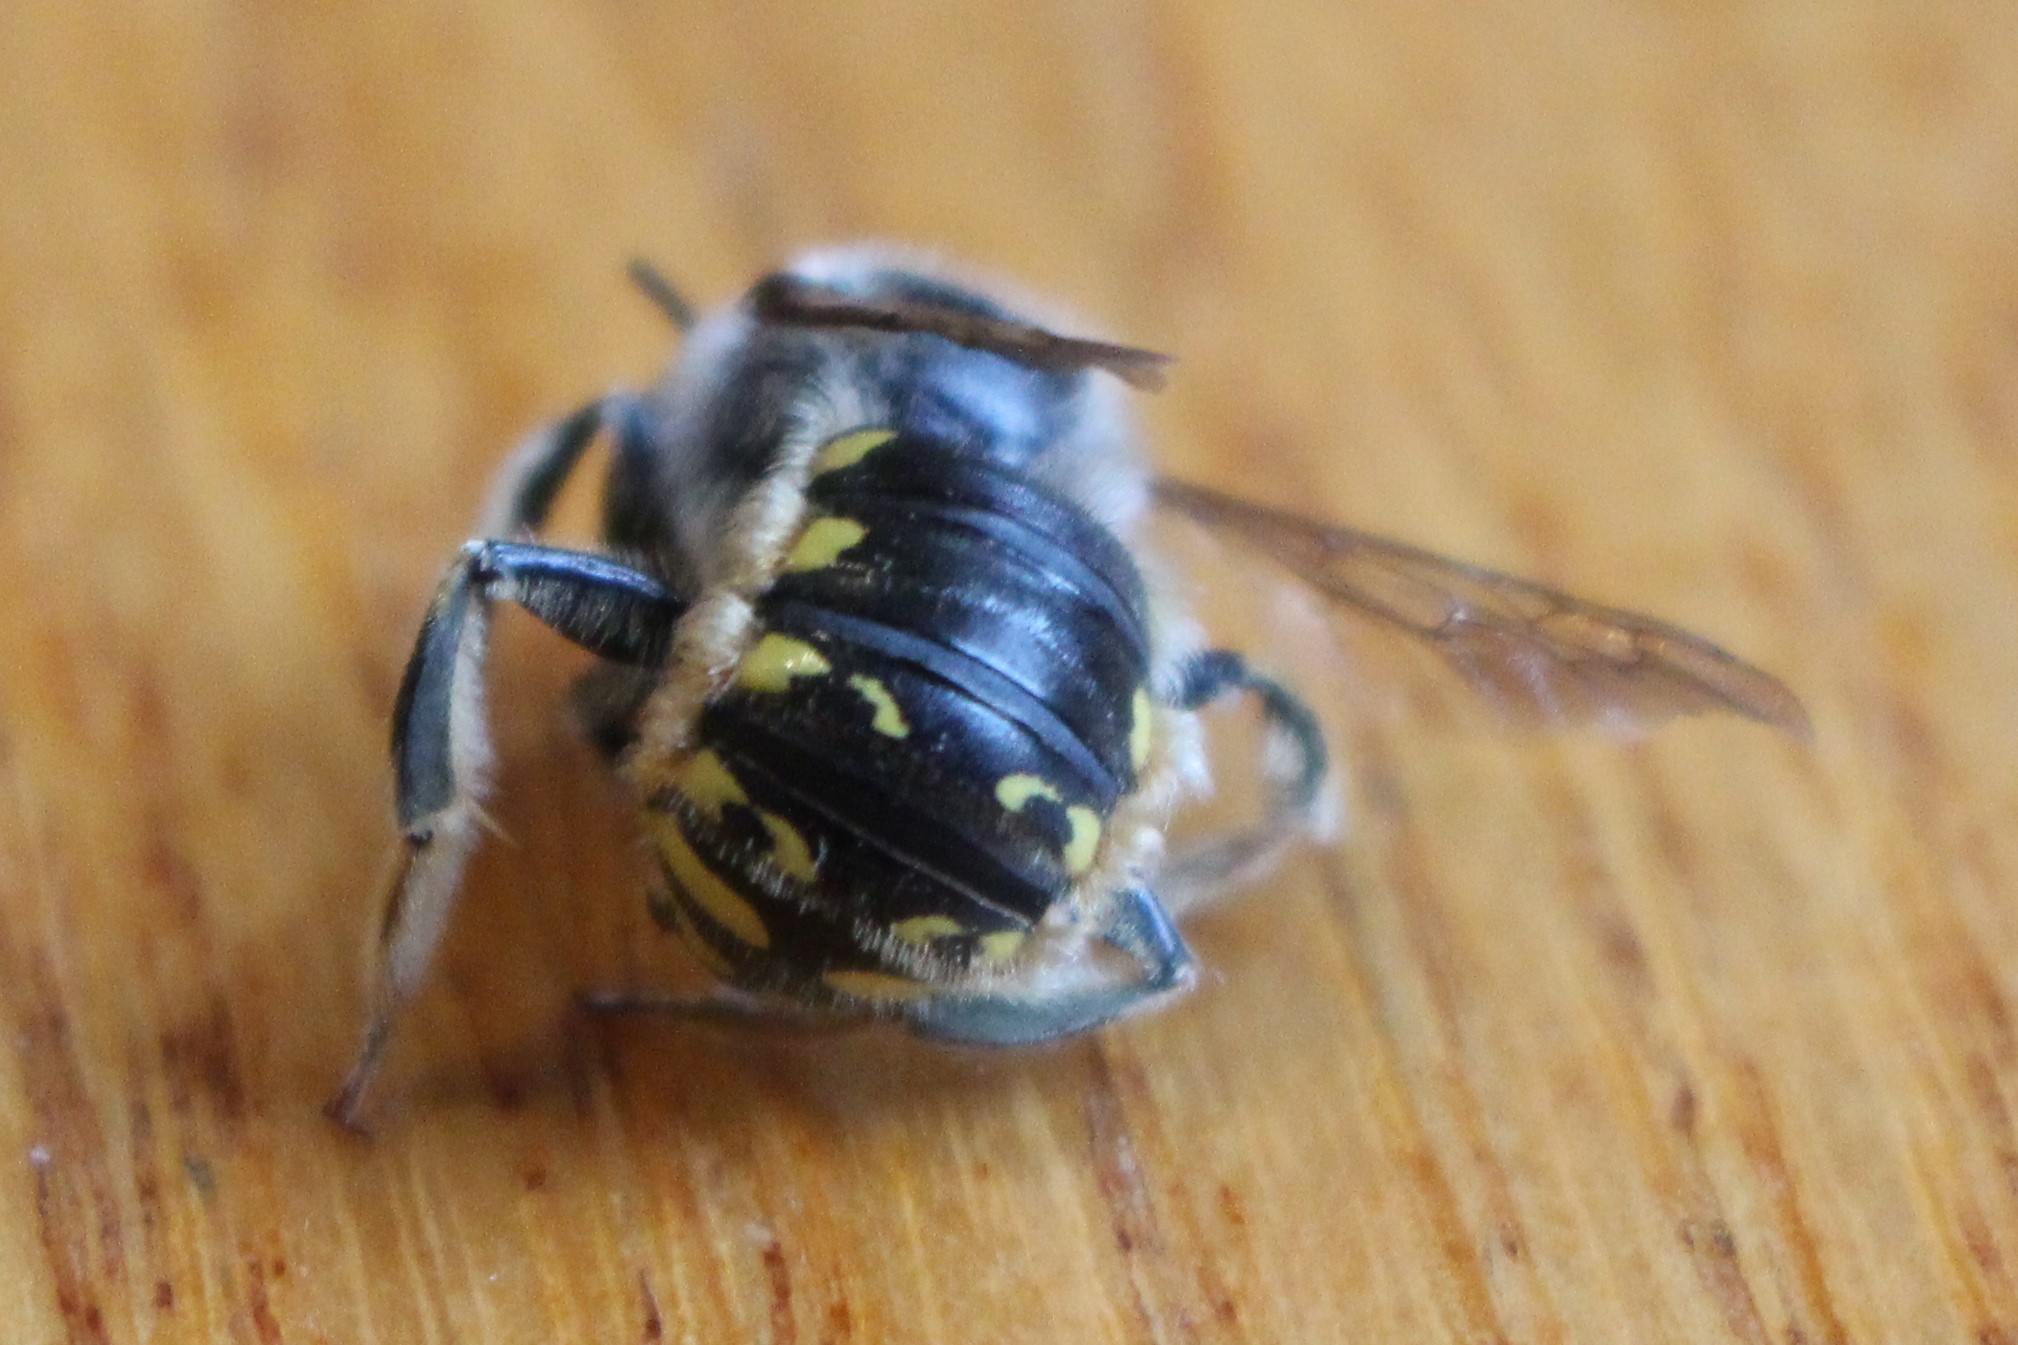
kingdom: Animalia
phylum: Arthropoda
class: Insecta
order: Hymenoptera
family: Megachilidae
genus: Anthidium
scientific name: Anthidium manicatum
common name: Wool carder bee
